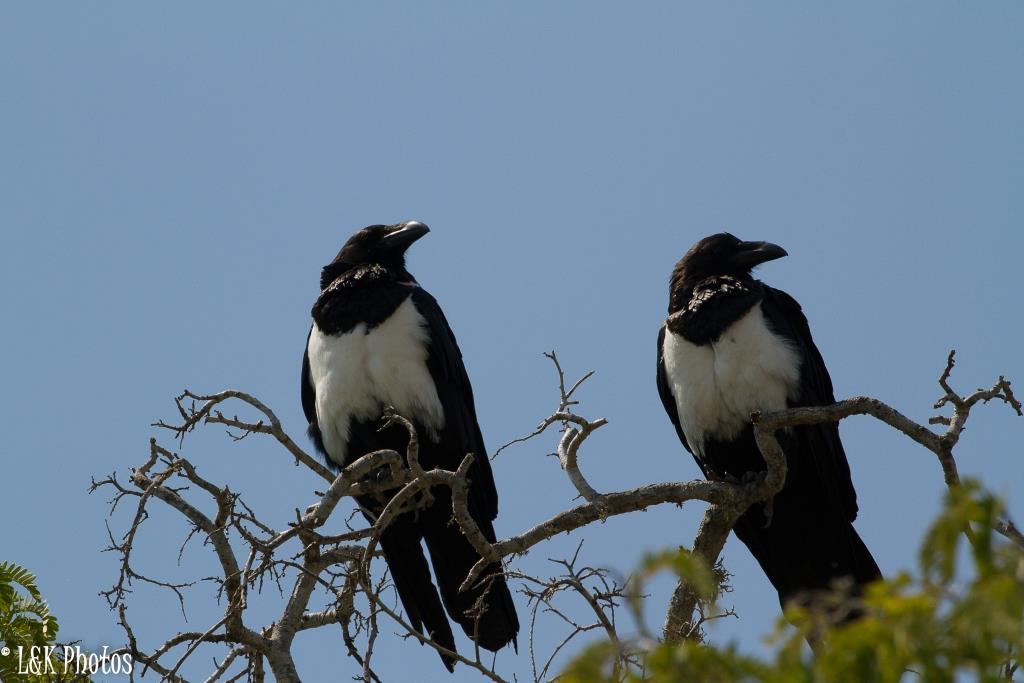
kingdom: Animalia
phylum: Chordata
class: Aves
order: Passeriformes
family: Corvidae
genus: Corvus
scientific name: Corvus albus
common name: Pied crow
